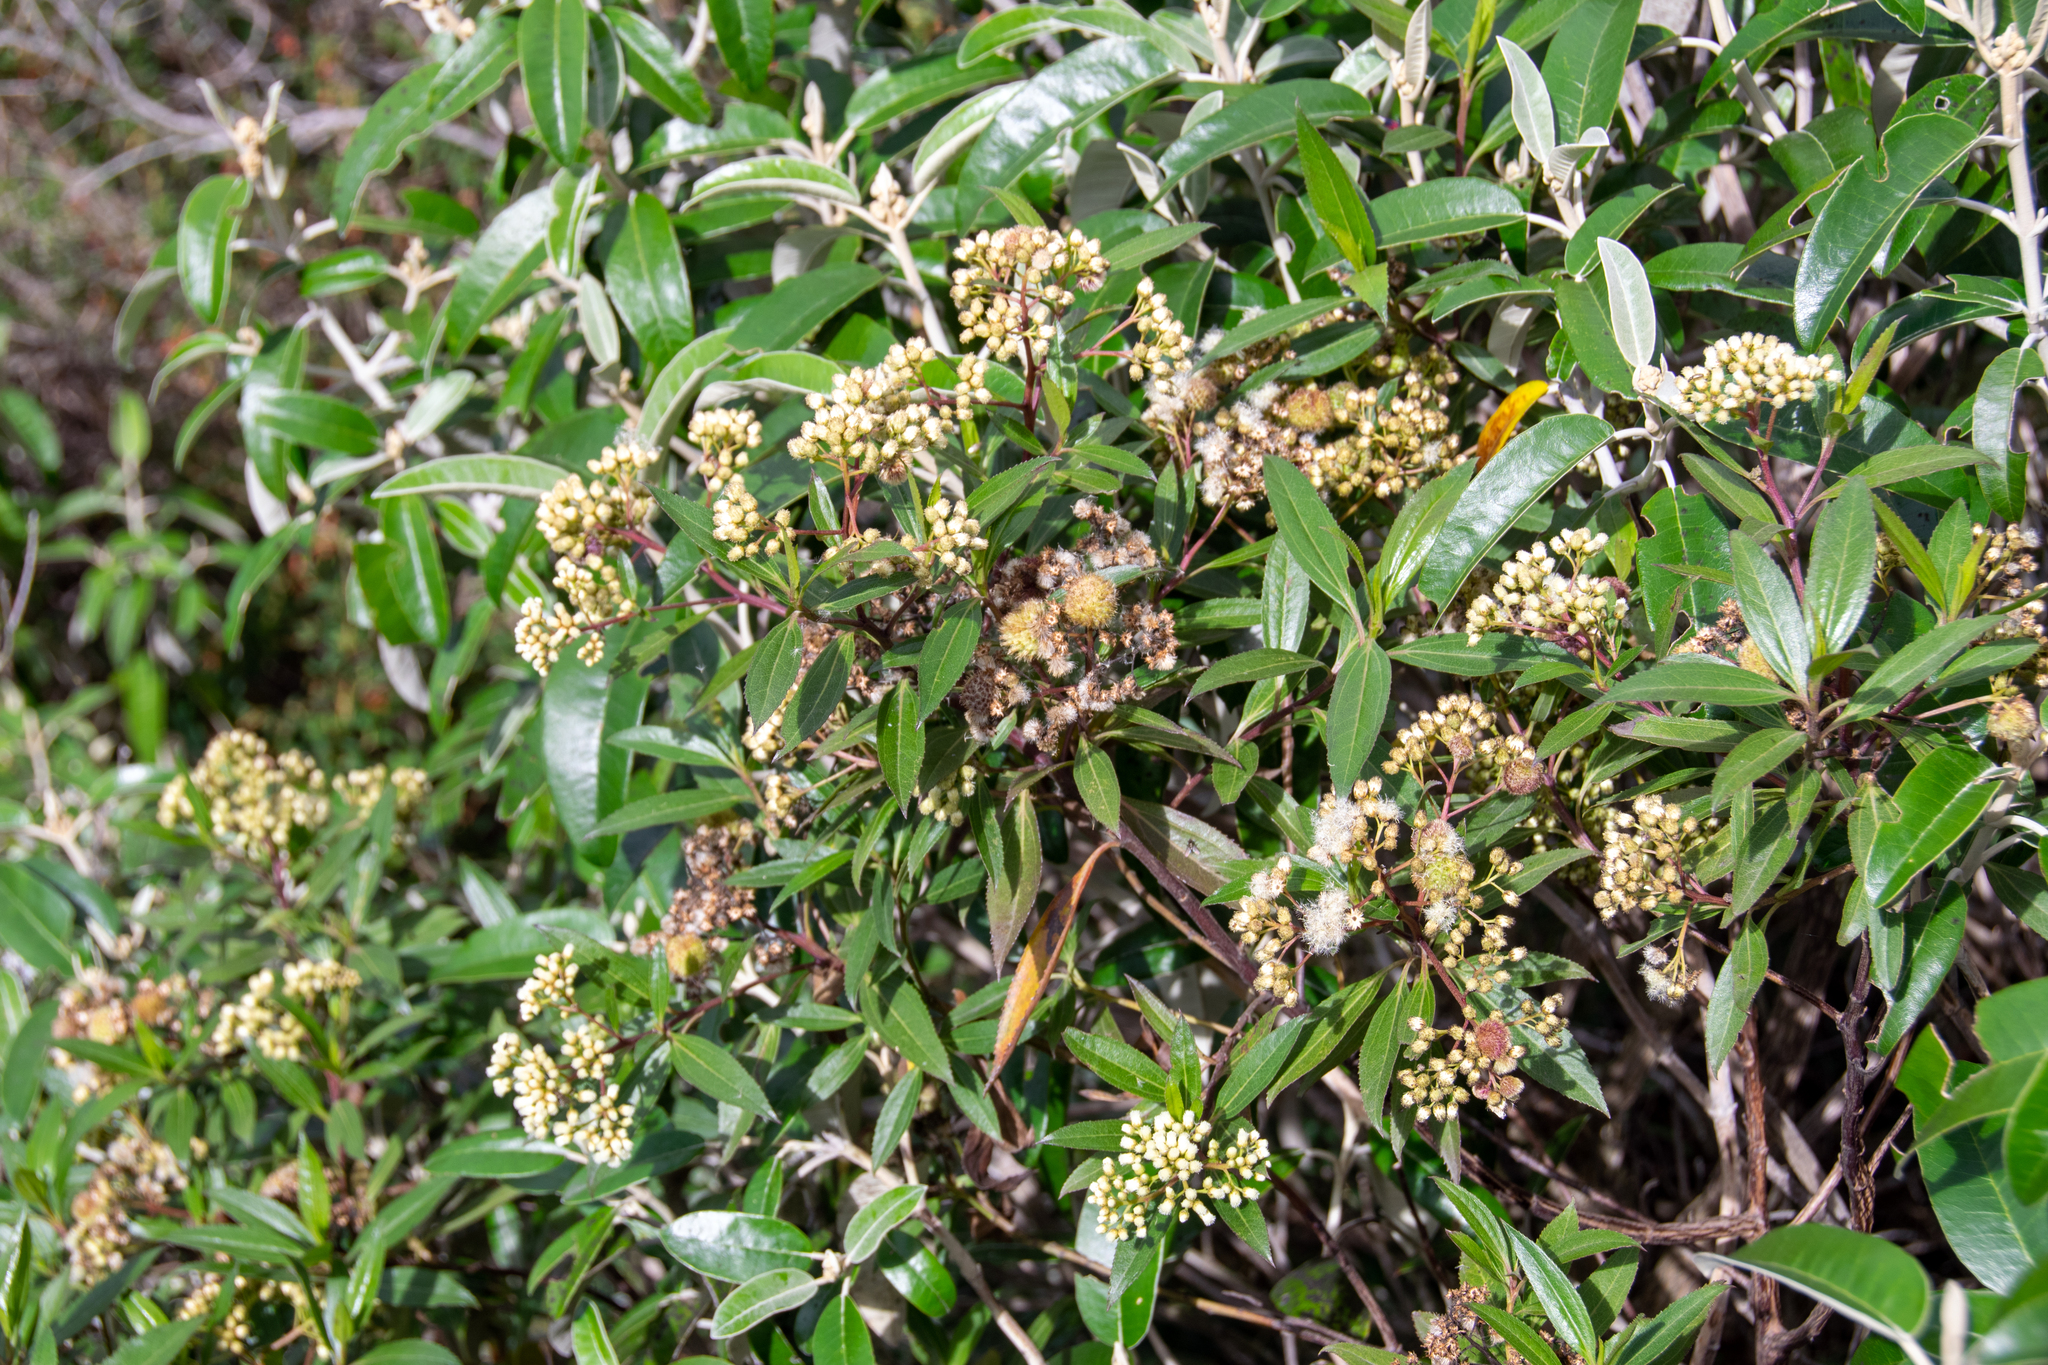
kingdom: Plantae
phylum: Tracheophyta
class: Magnoliopsida
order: Asterales
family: Asteraceae
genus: Baccharis
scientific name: Baccharis latifolia
